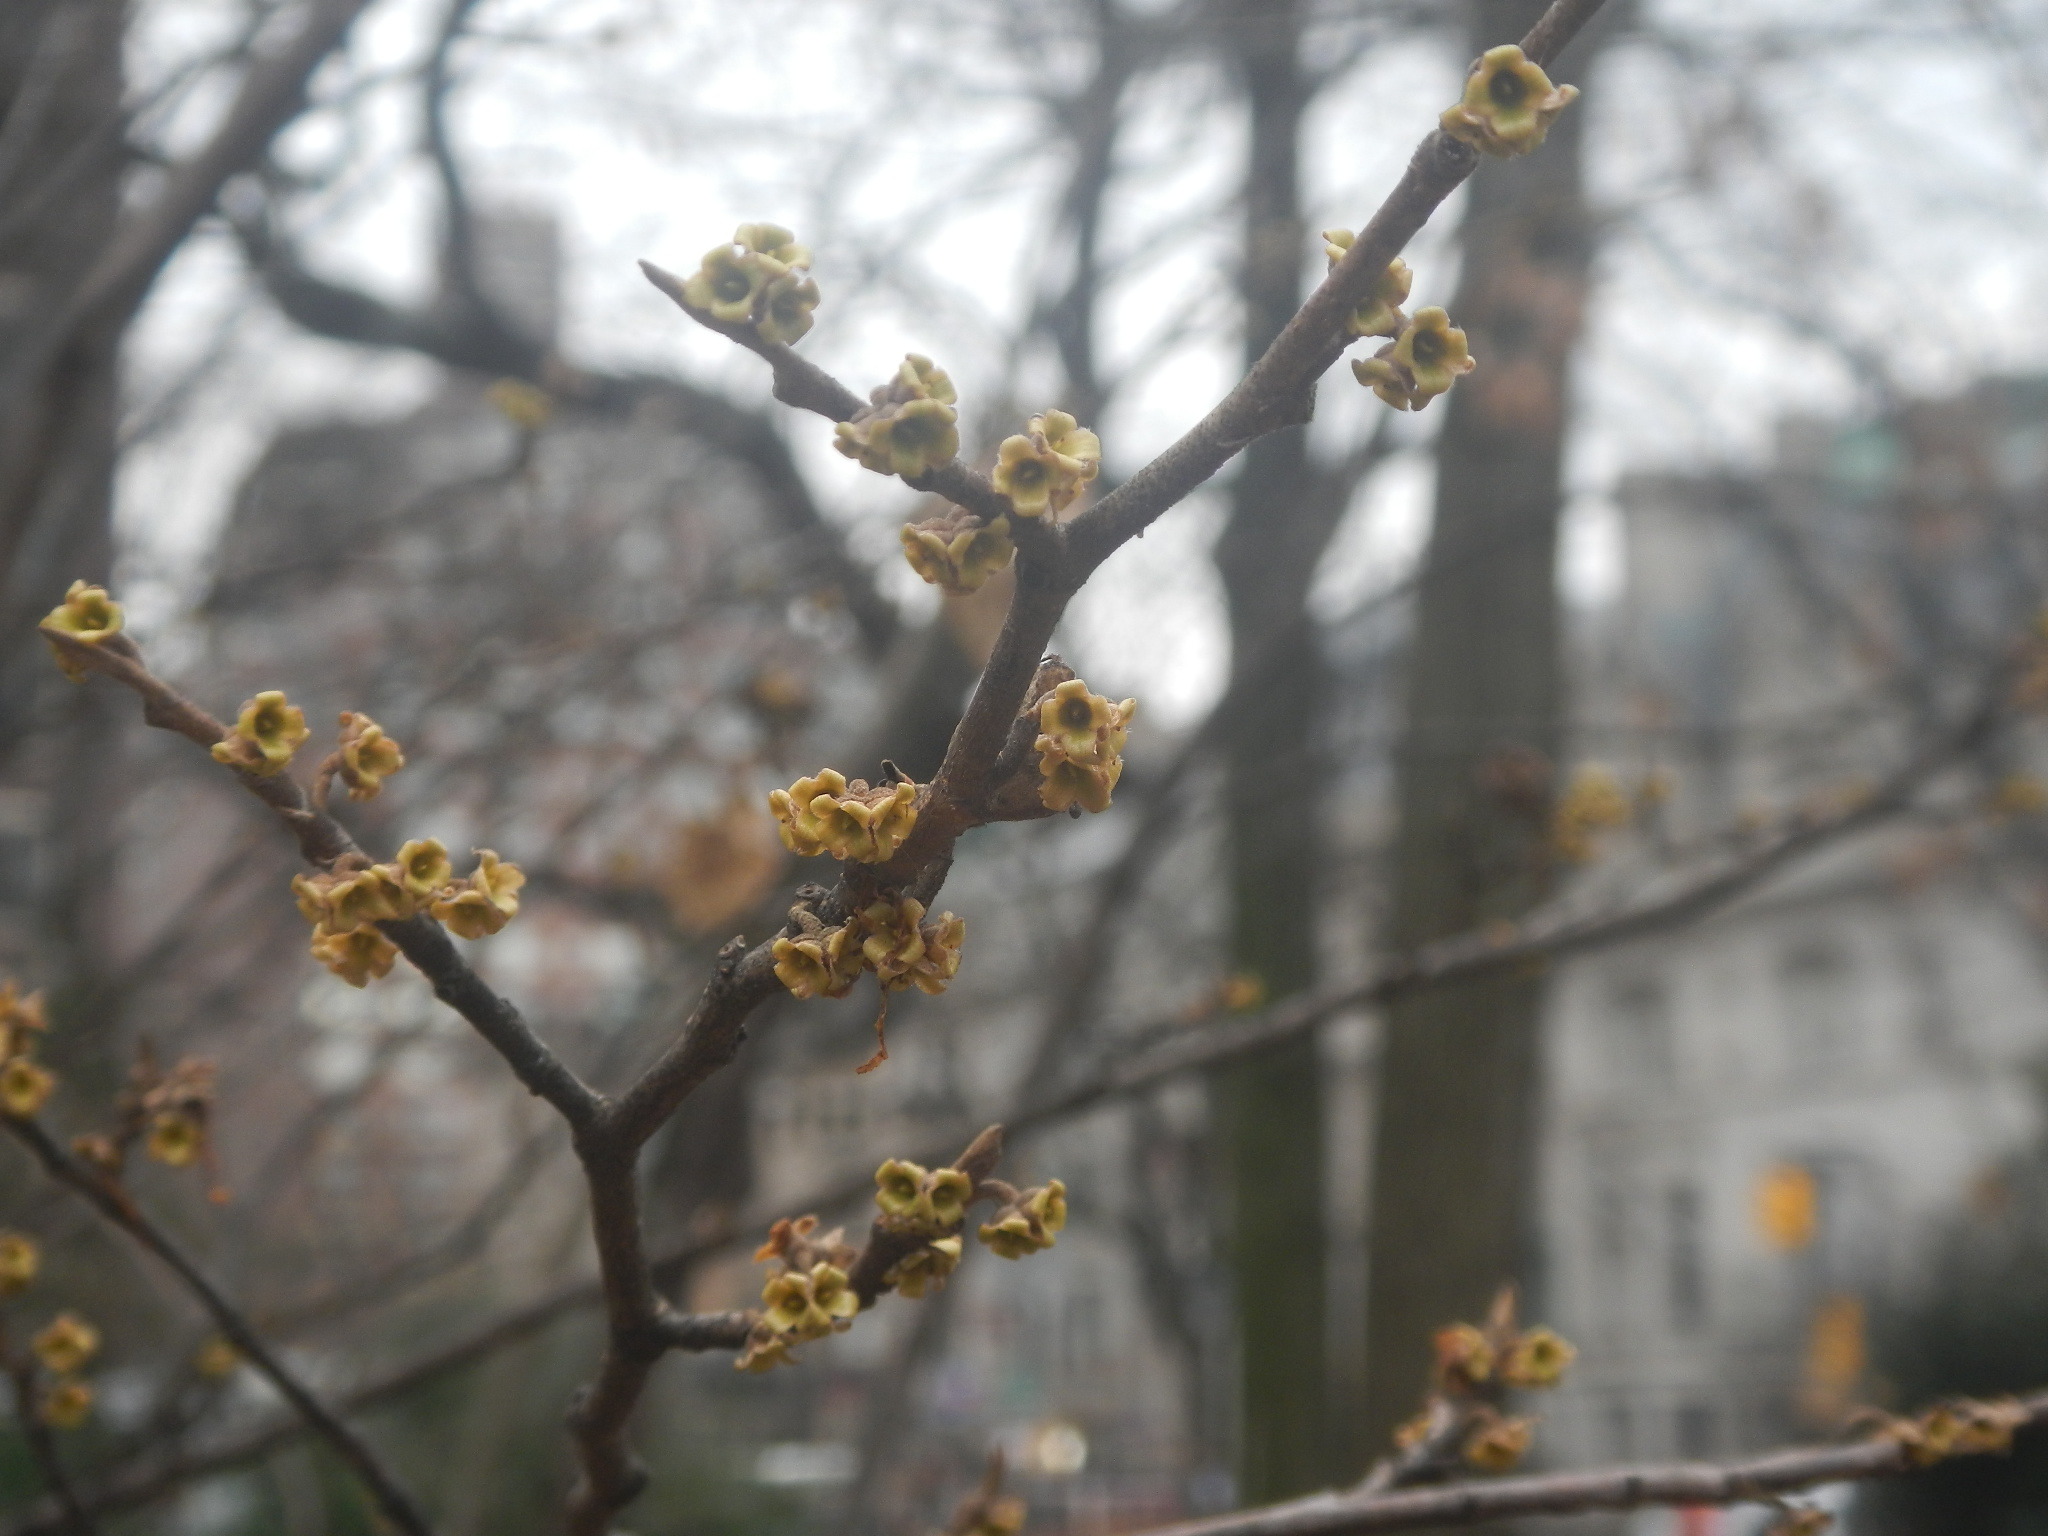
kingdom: Plantae
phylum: Tracheophyta
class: Magnoliopsida
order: Saxifragales
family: Hamamelidaceae
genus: Hamamelis
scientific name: Hamamelis virginiana
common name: Witch-hazel
